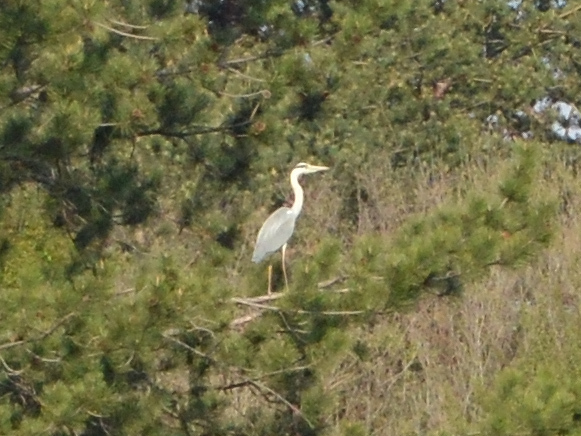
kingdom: Animalia
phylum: Chordata
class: Aves
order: Pelecaniformes
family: Ardeidae
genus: Ardea
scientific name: Ardea cinerea
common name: Grey heron
